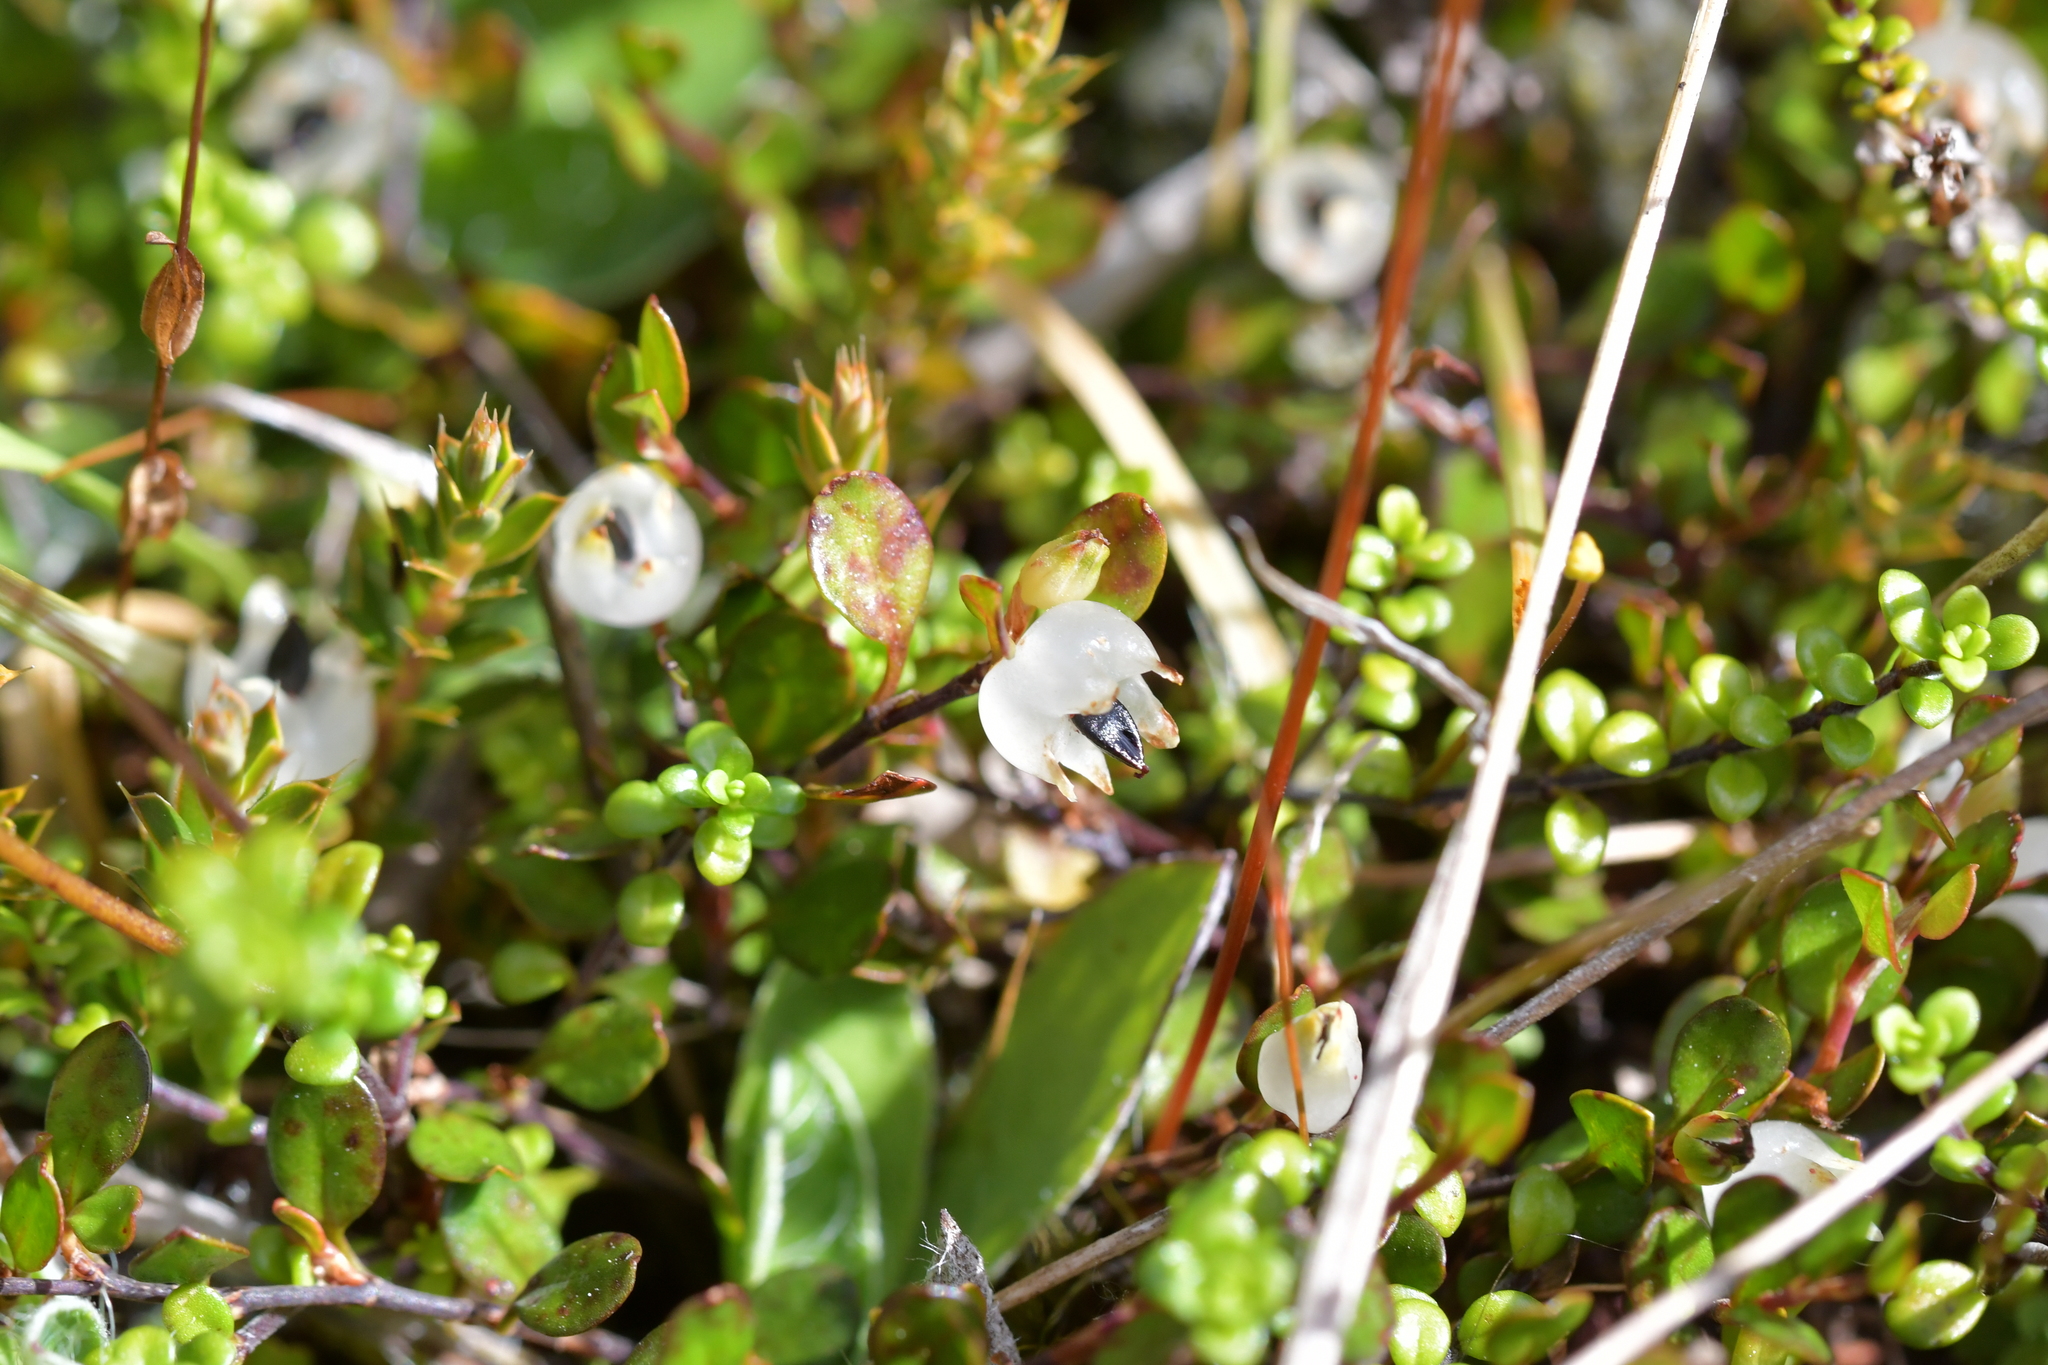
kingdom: Plantae
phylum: Tracheophyta
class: Magnoliopsida
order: Caryophyllales
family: Polygonaceae
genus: Muehlenbeckia
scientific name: Muehlenbeckia axillaris
